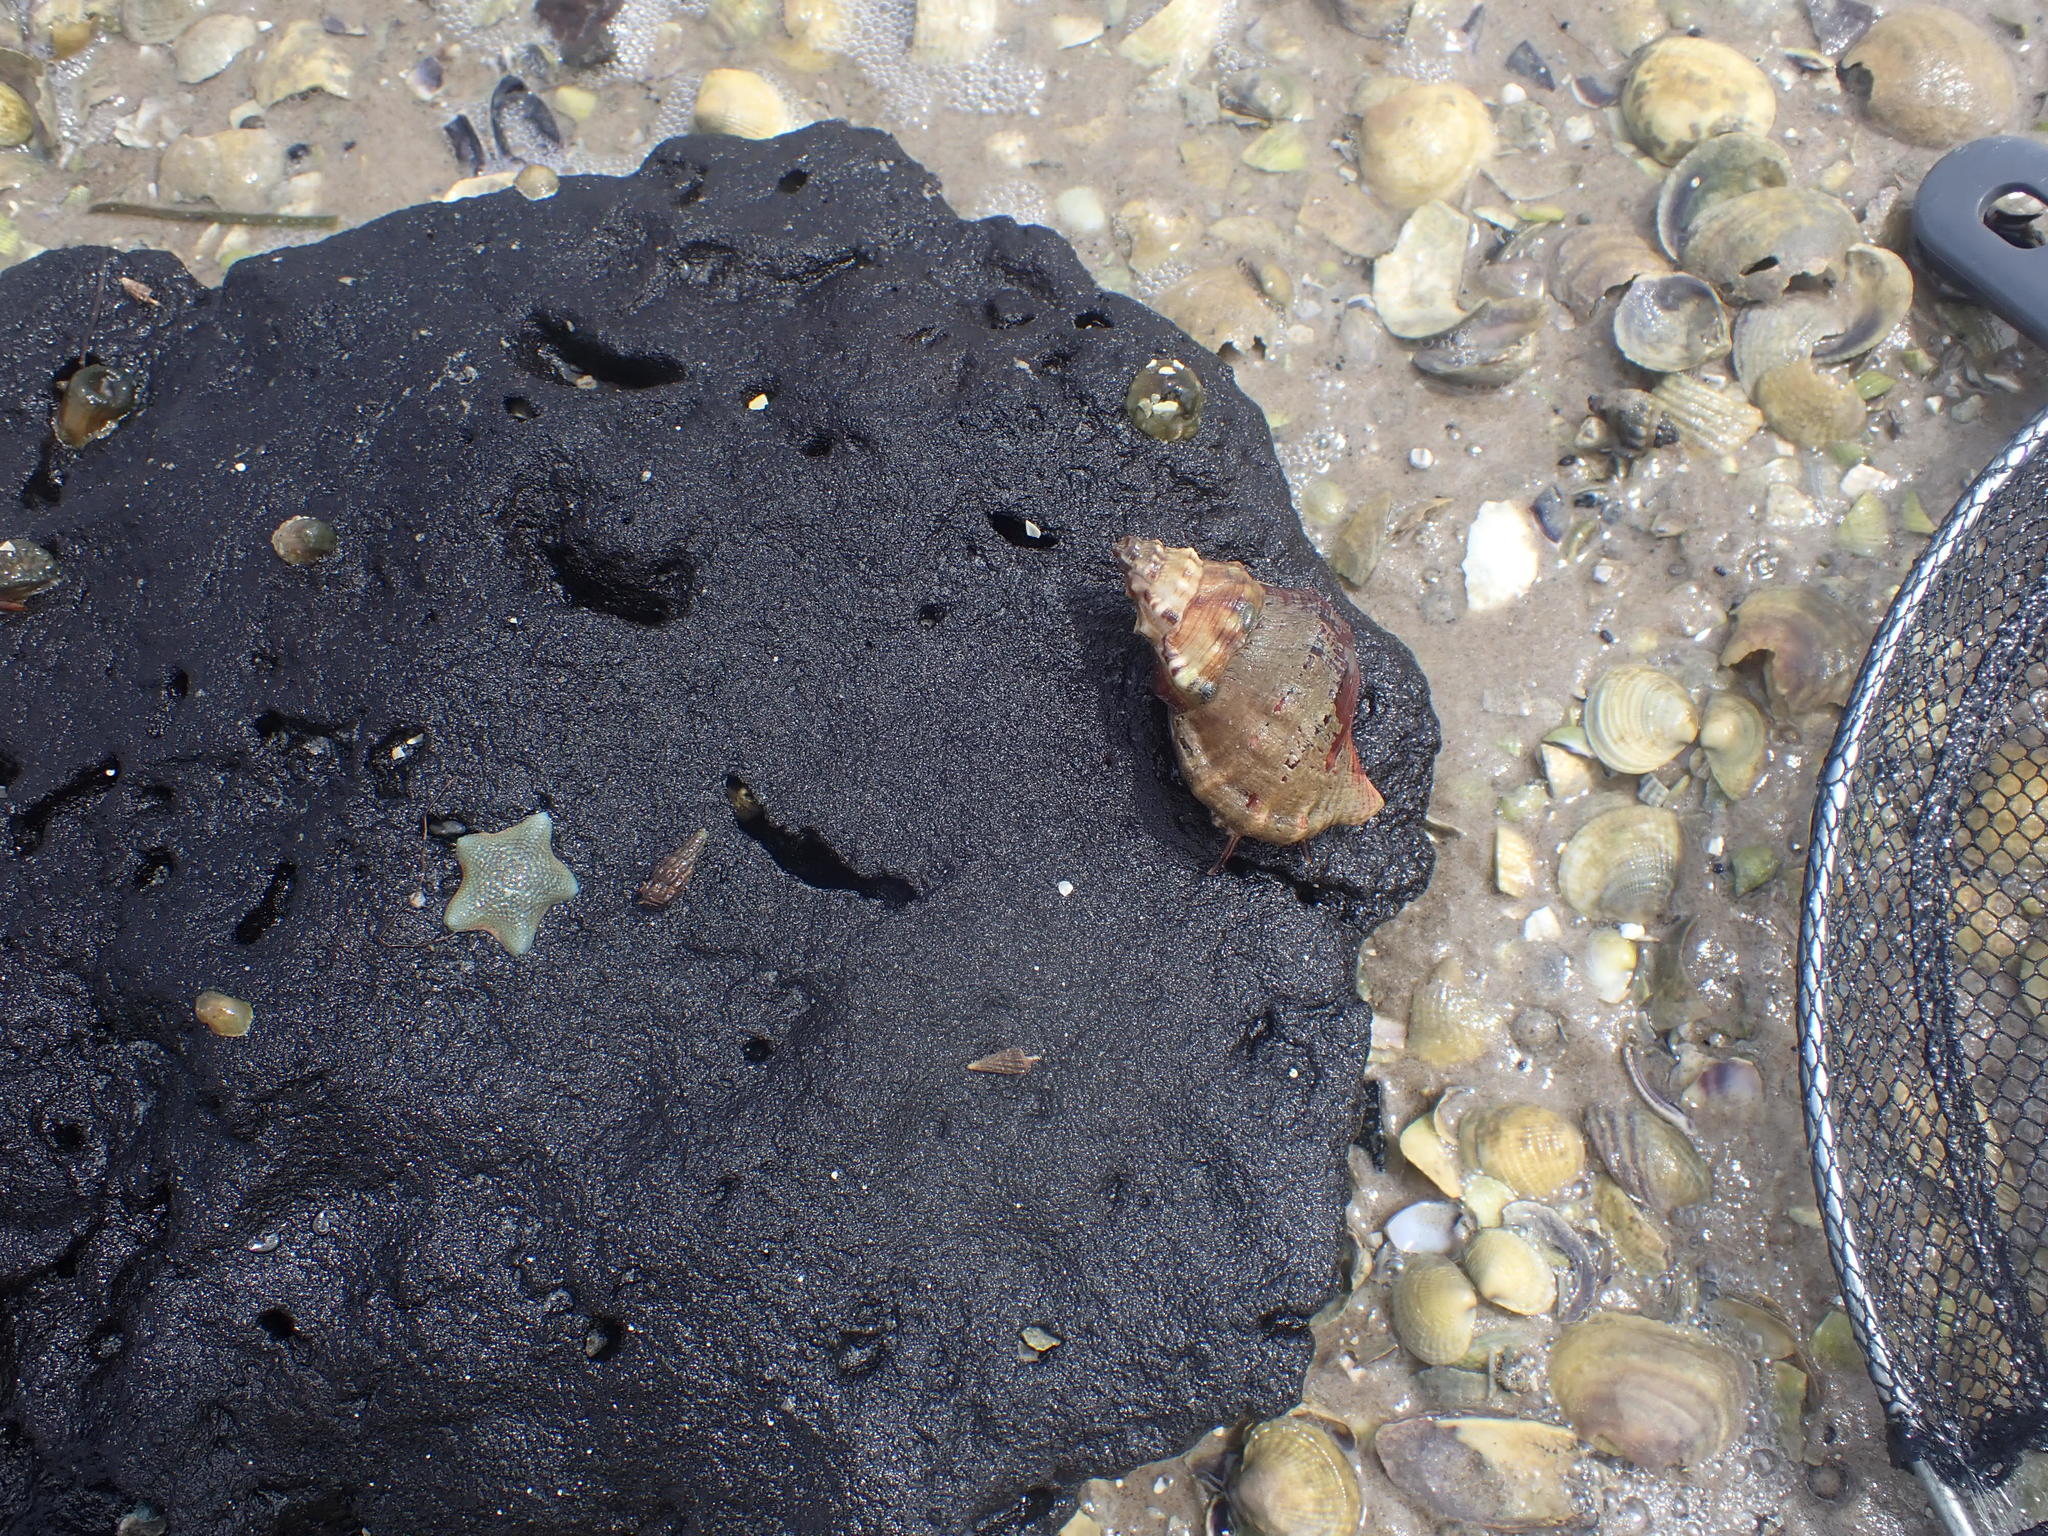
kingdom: Animalia
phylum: Mollusca
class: Gastropoda
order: Littorinimorpha
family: Ranellidae
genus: Ranella
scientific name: Ranella australasia
